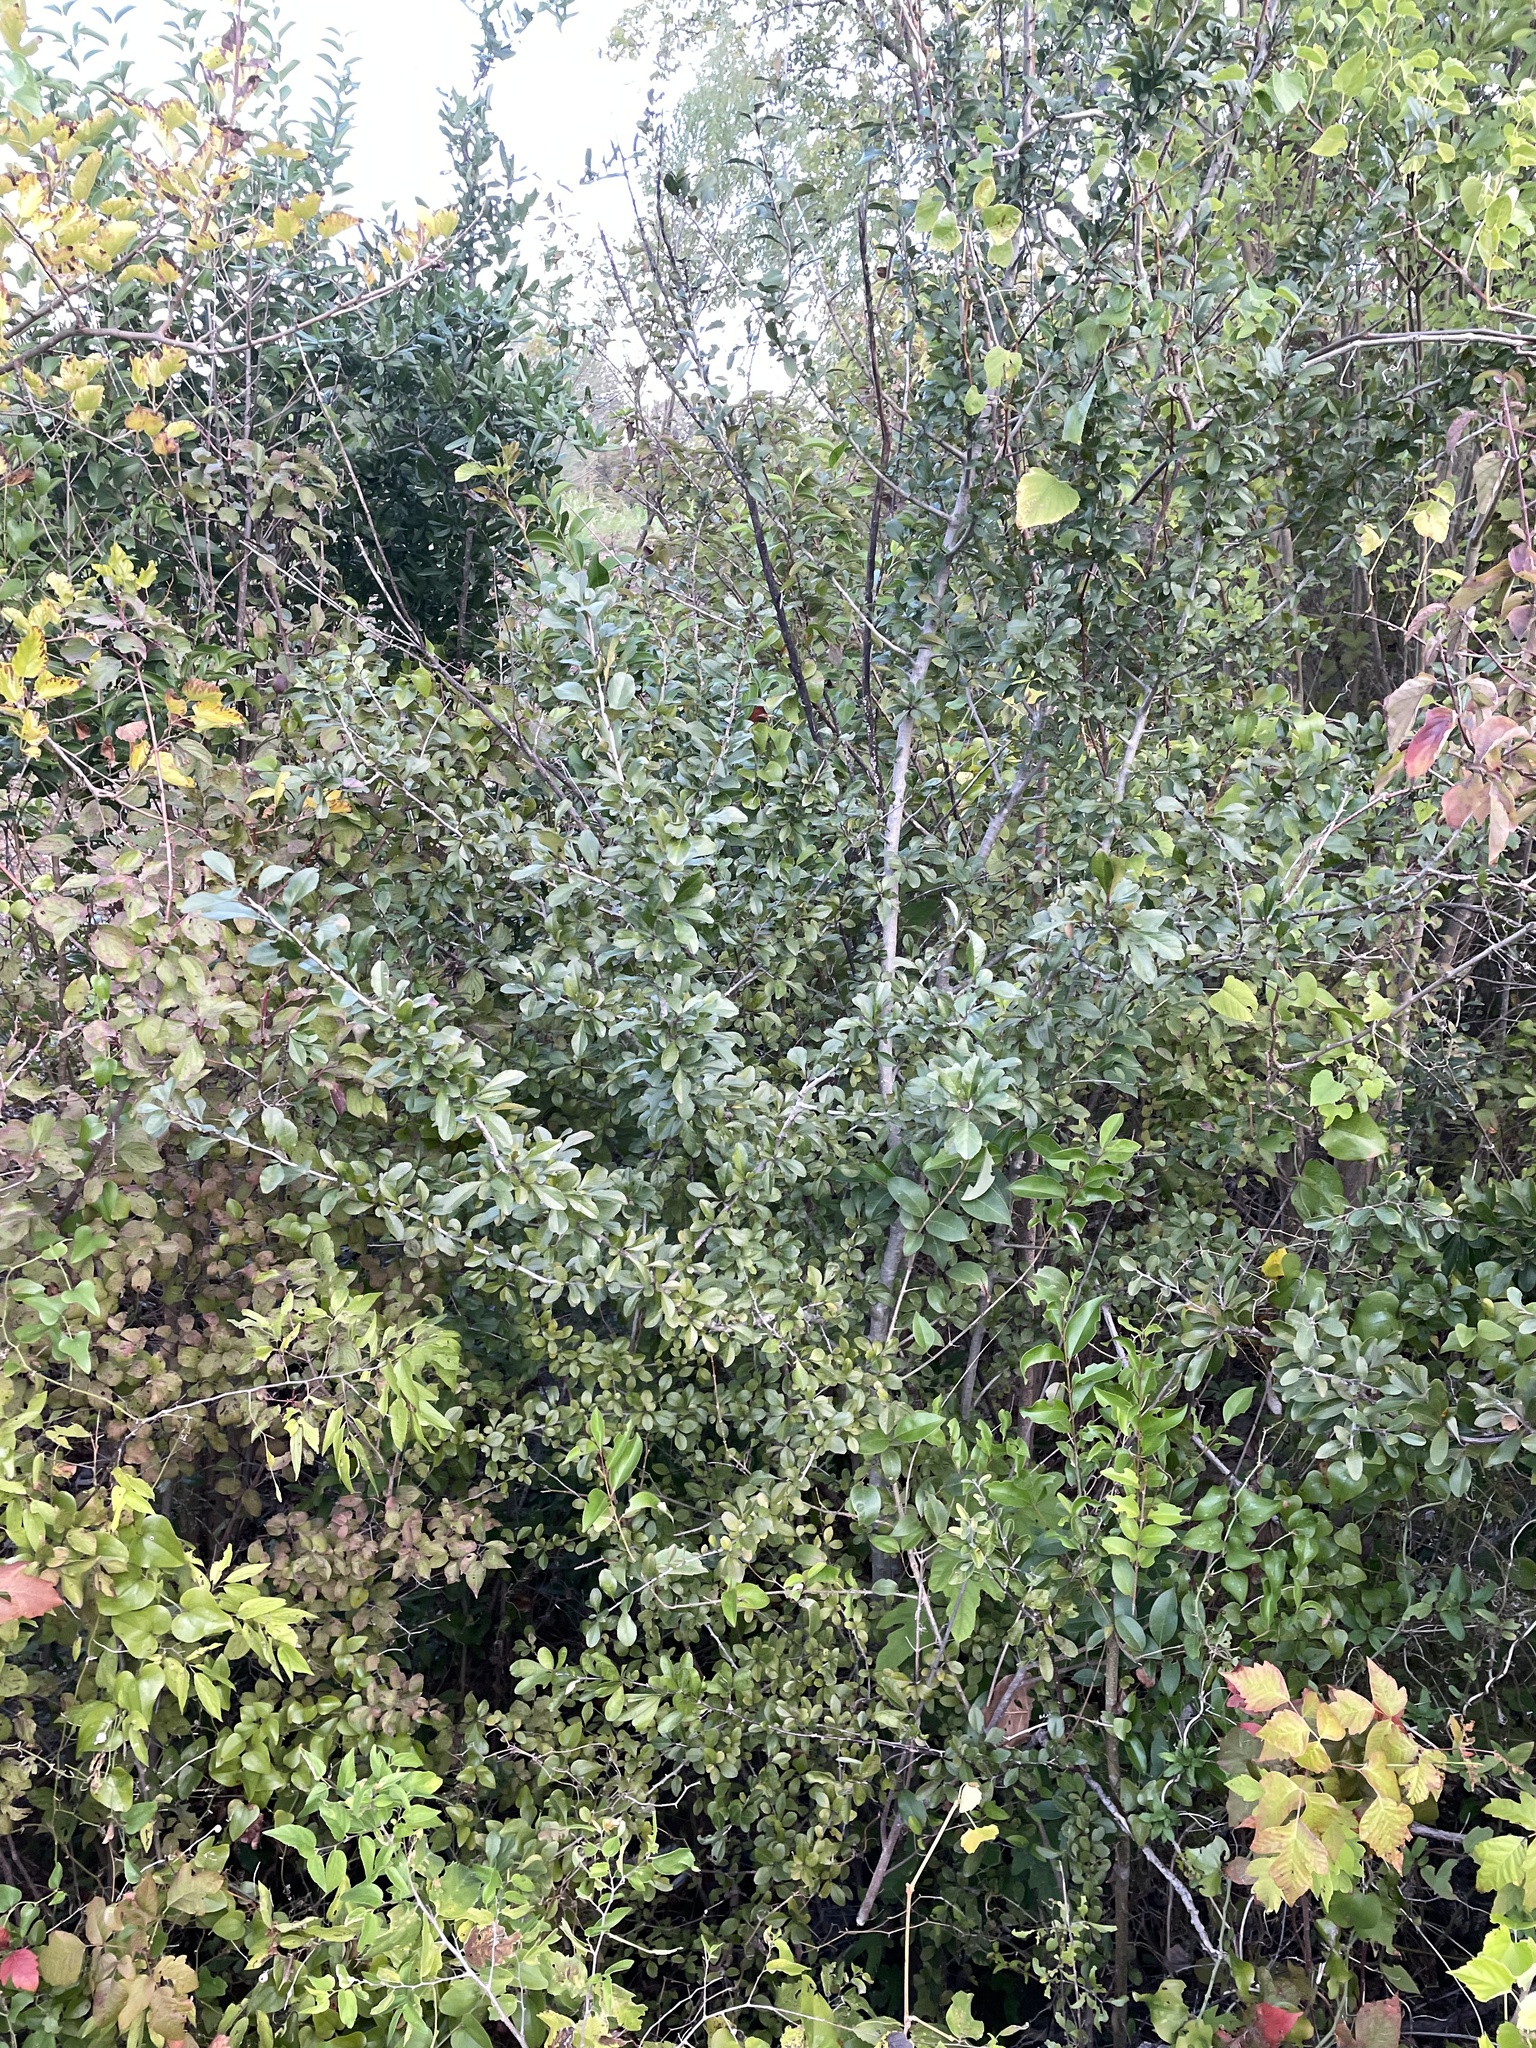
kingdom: Plantae
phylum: Tracheophyta
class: Magnoliopsida
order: Aquifoliales
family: Aquifoliaceae
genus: Ilex
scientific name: Ilex decidua
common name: Possum-haw
